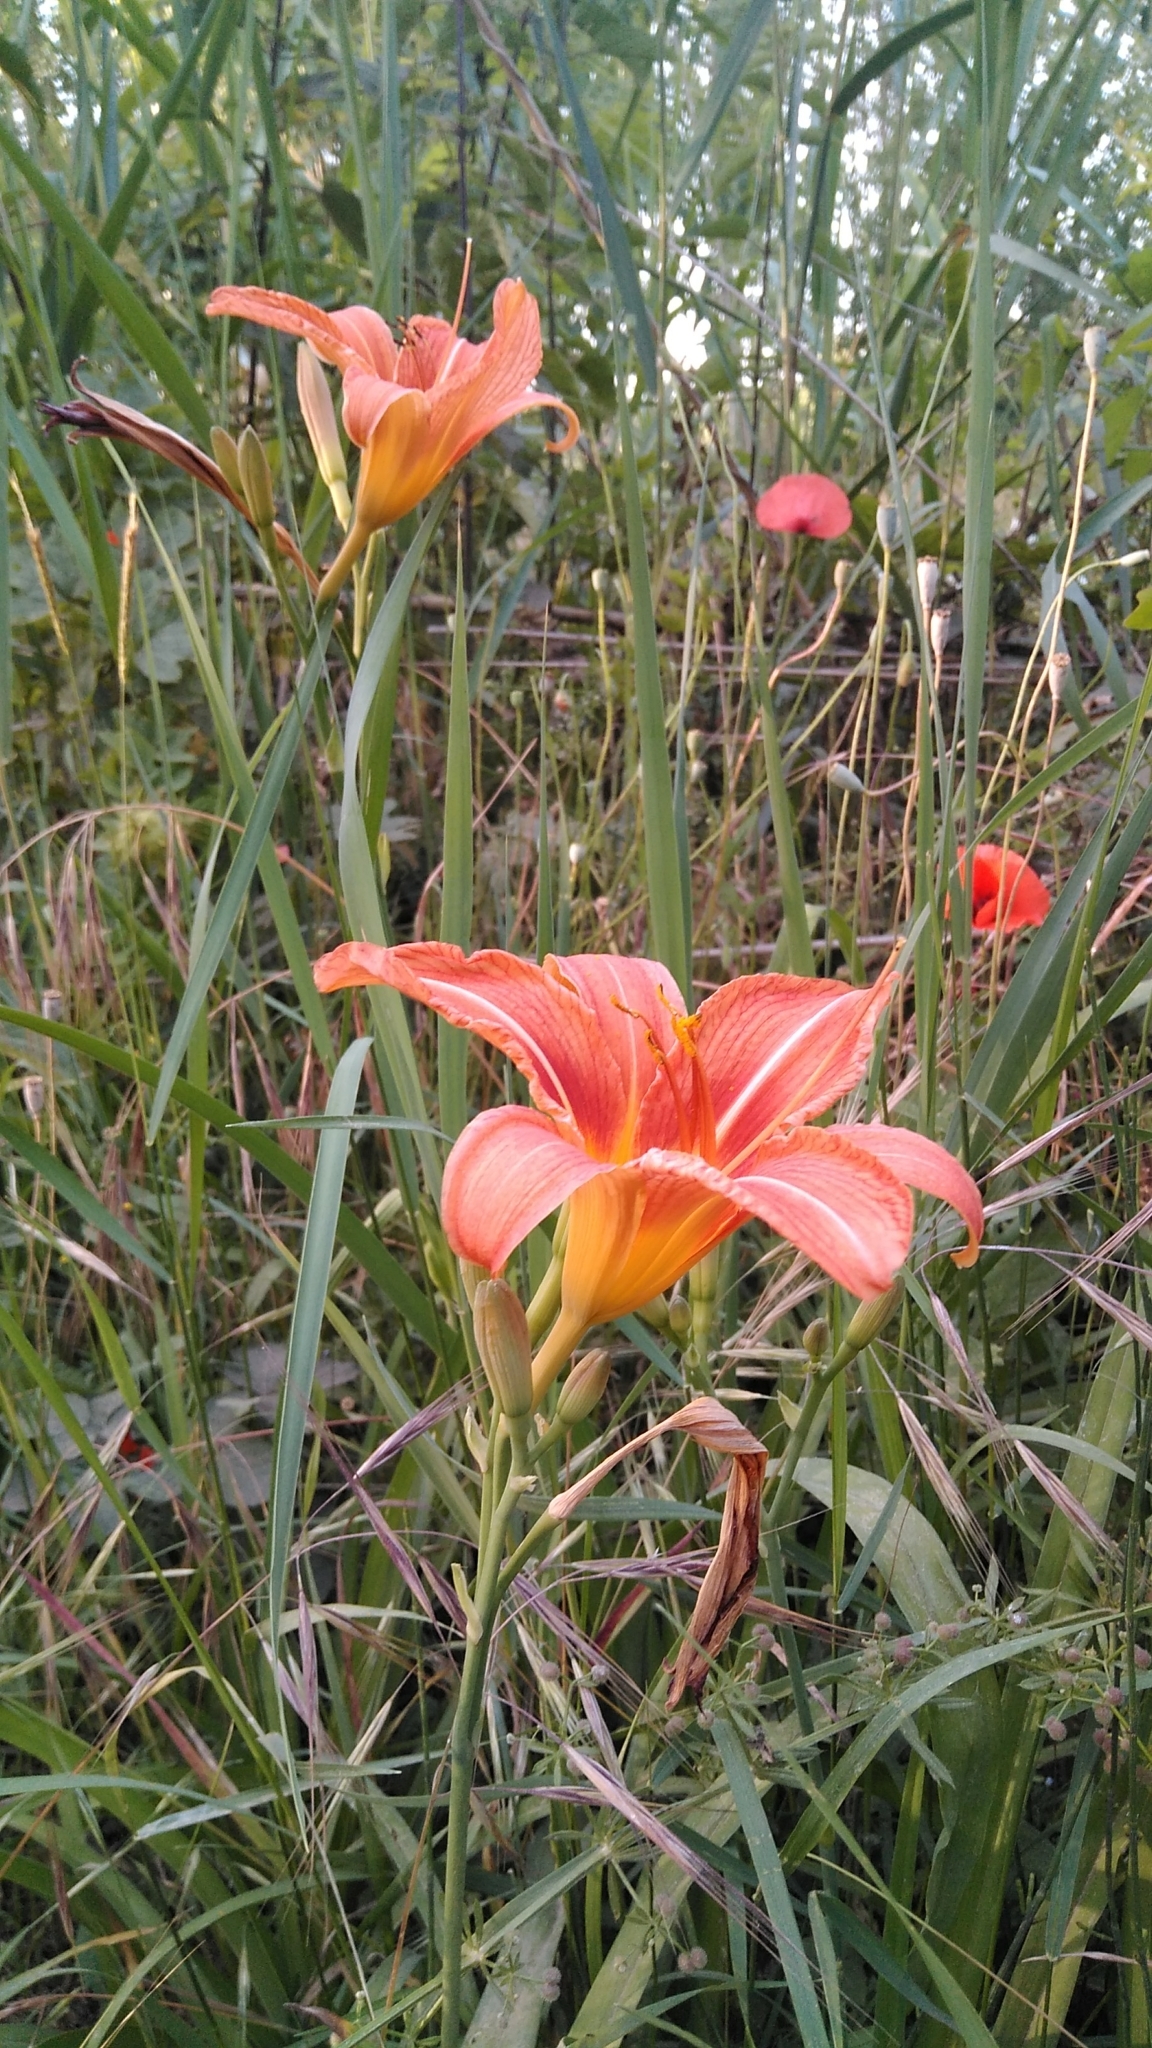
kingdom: Plantae
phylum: Tracheophyta
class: Liliopsida
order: Asparagales
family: Asphodelaceae
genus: Hemerocallis
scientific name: Hemerocallis fulva
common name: Orange day-lily
